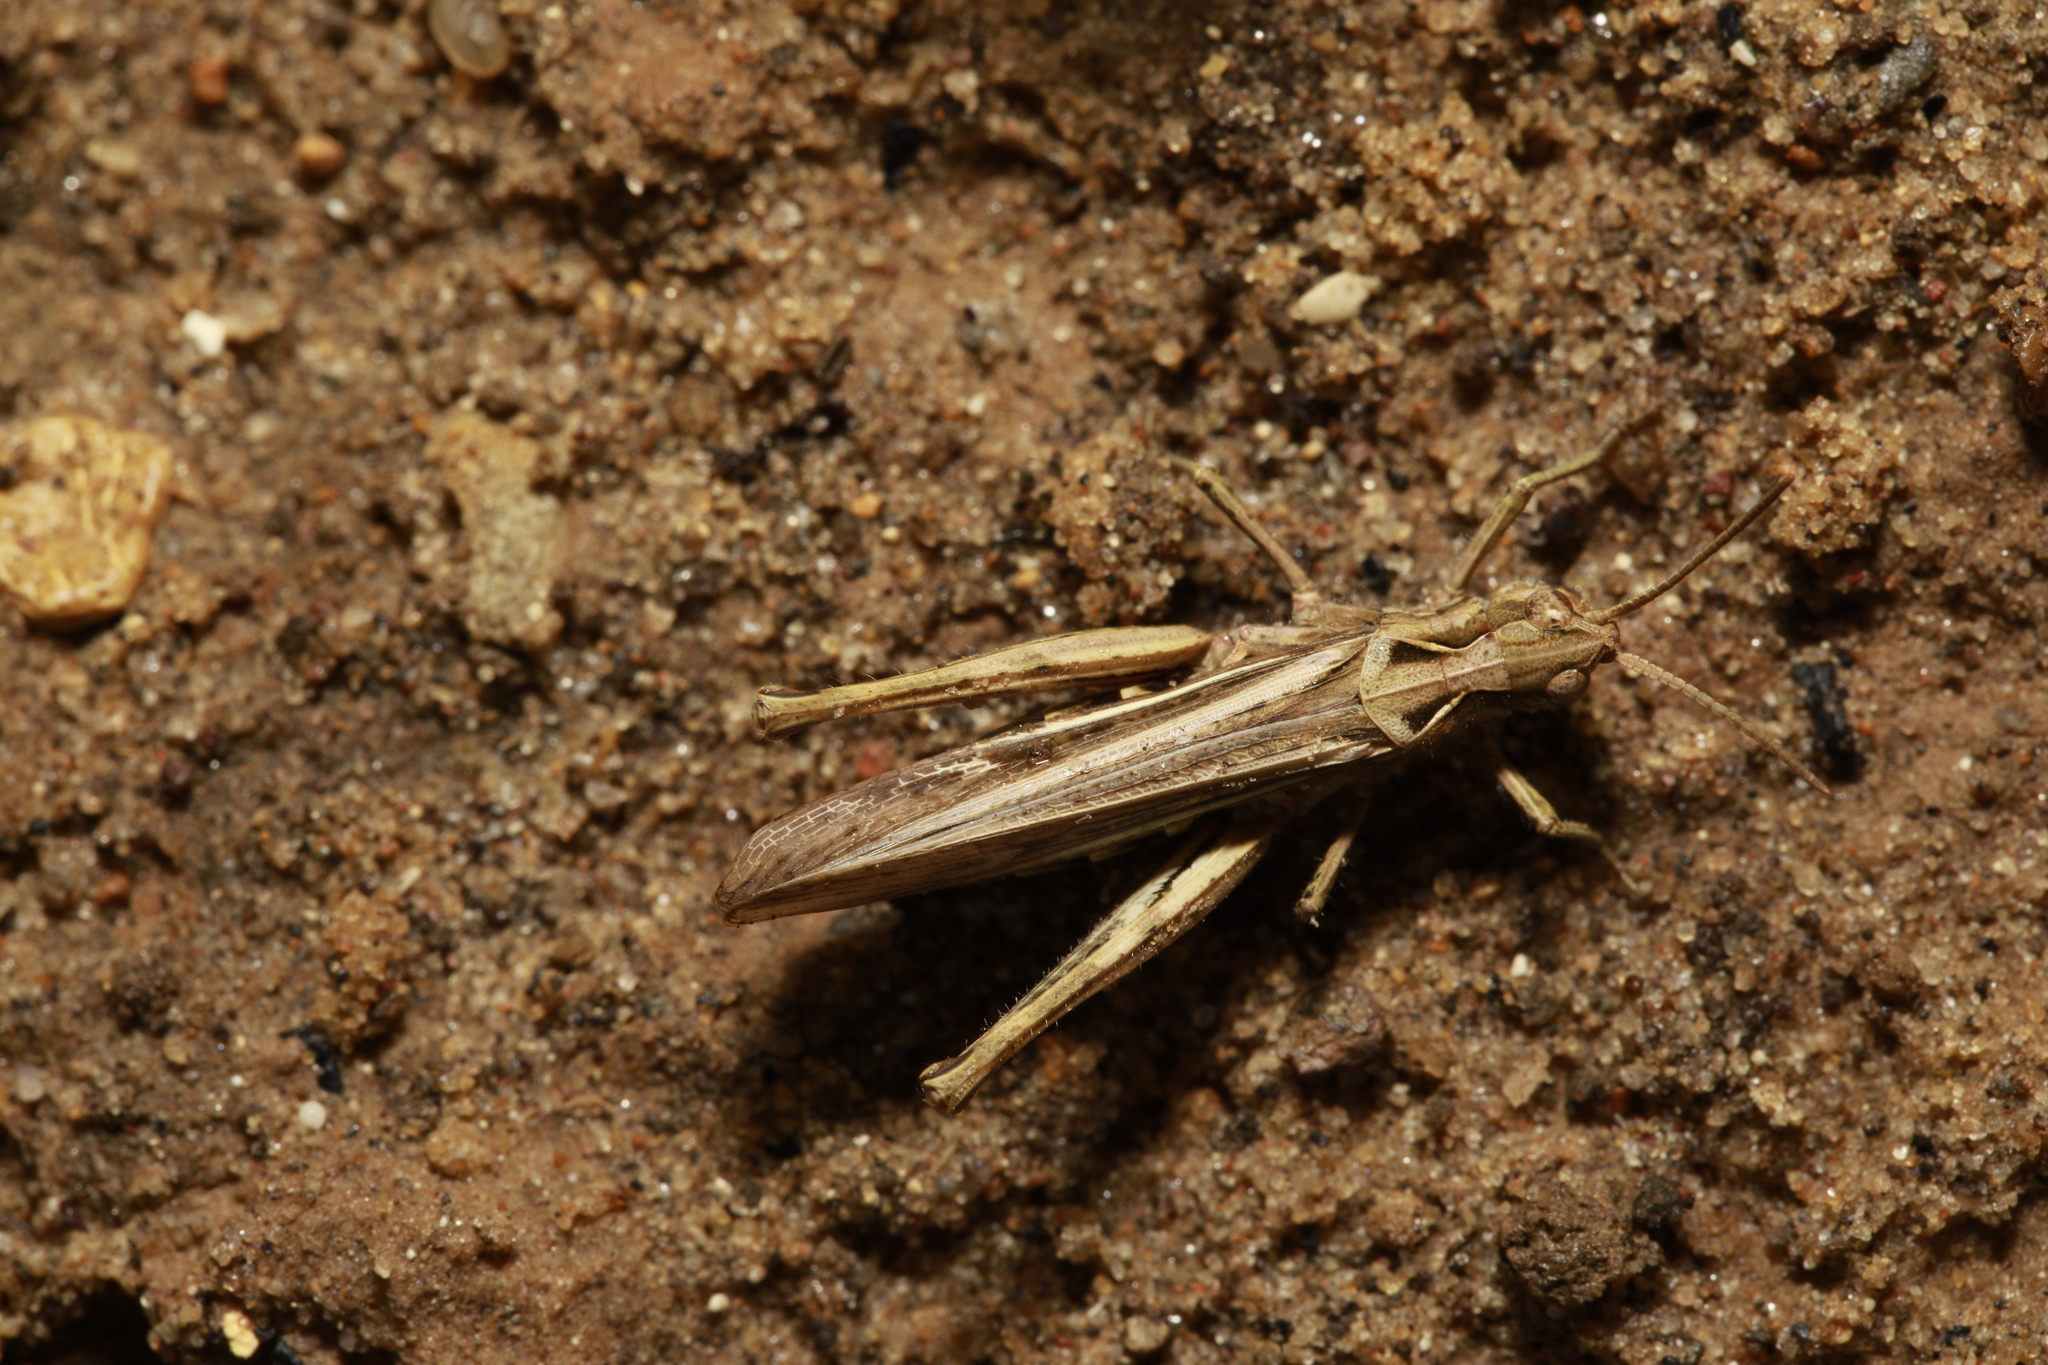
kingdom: Animalia
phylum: Arthropoda
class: Insecta
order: Orthoptera
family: Acrididae
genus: Chorthippus
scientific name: Chorthippus brunneus
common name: Field grasshopper
